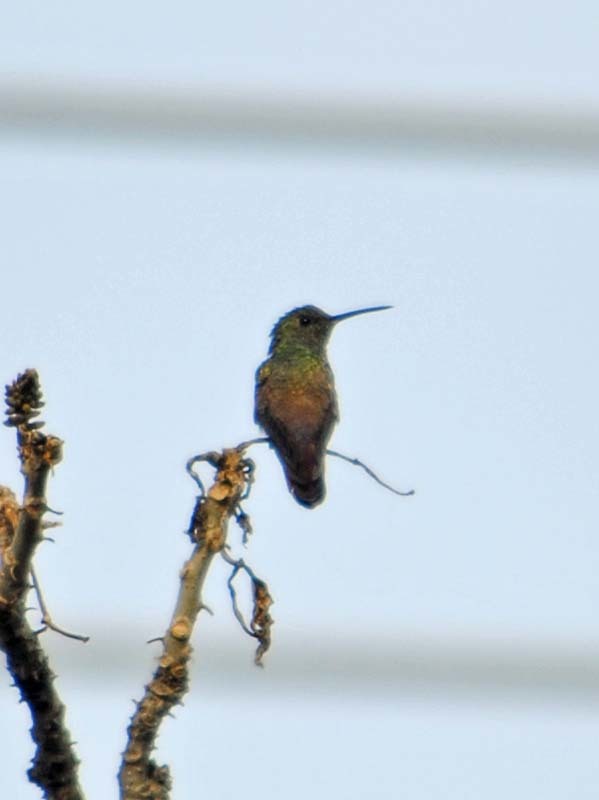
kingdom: Animalia
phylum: Chordata
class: Aves
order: Apodiformes
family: Trochilidae
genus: Saucerottia
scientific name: Saucerottia beryllina
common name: Berylline hummingbird
